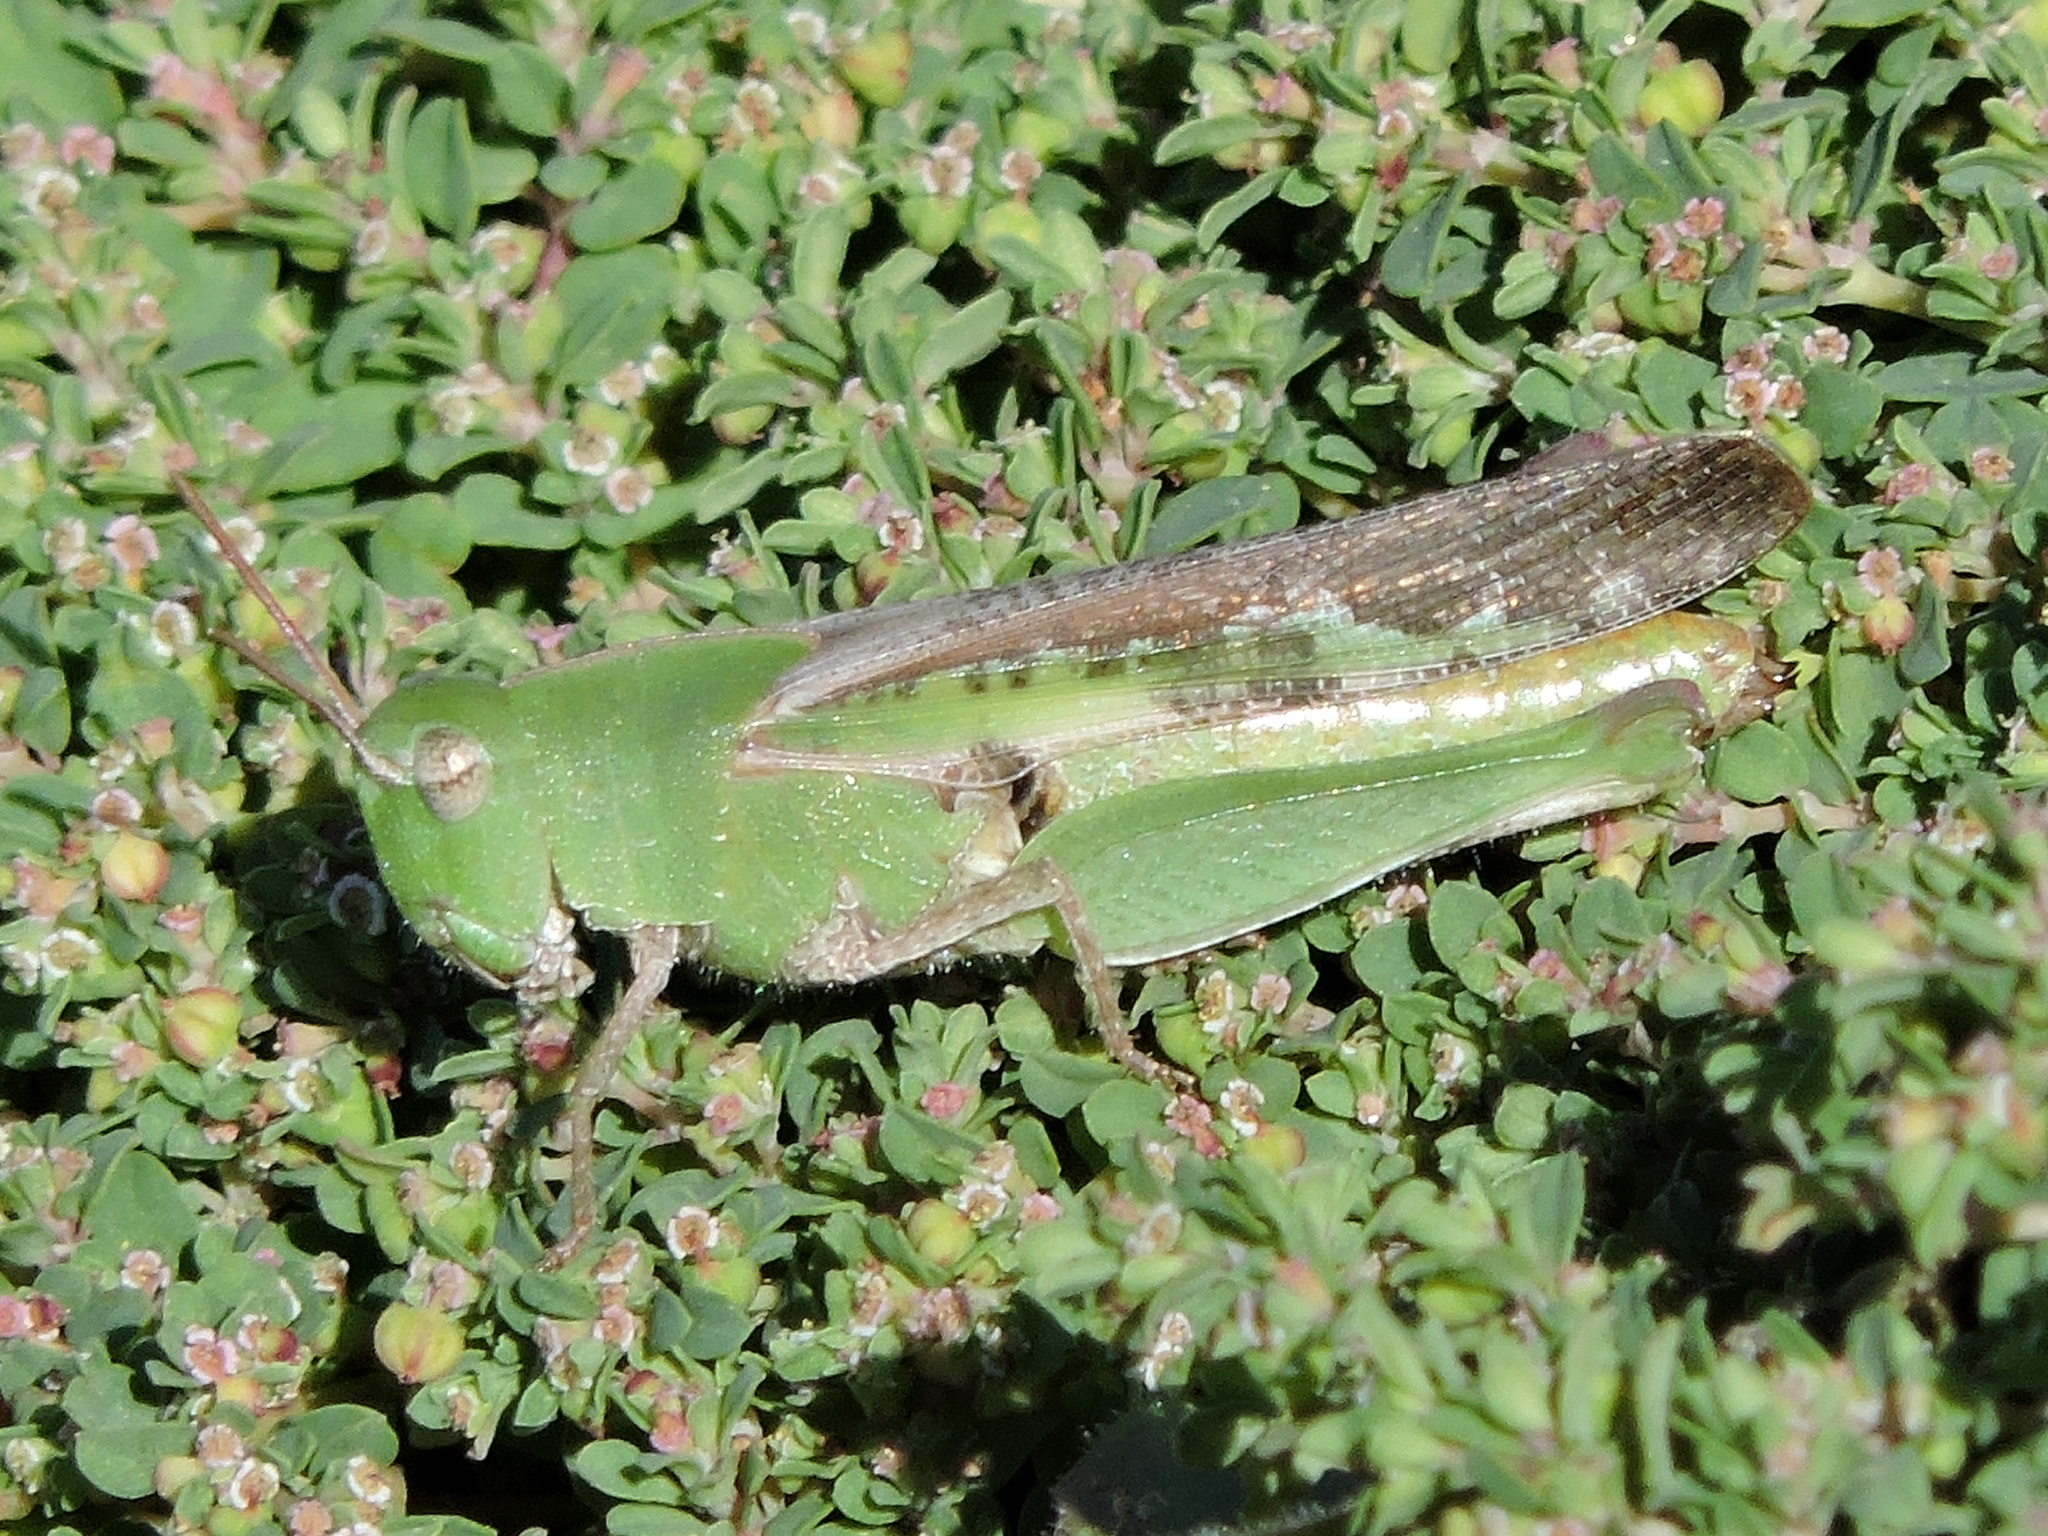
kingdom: Animalia
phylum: Arthropoda
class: Insecta
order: Orthoptera
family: Acrididae
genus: Chortophaga
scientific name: Chortophaga viridifasciata
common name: Green-striped grasshopper
